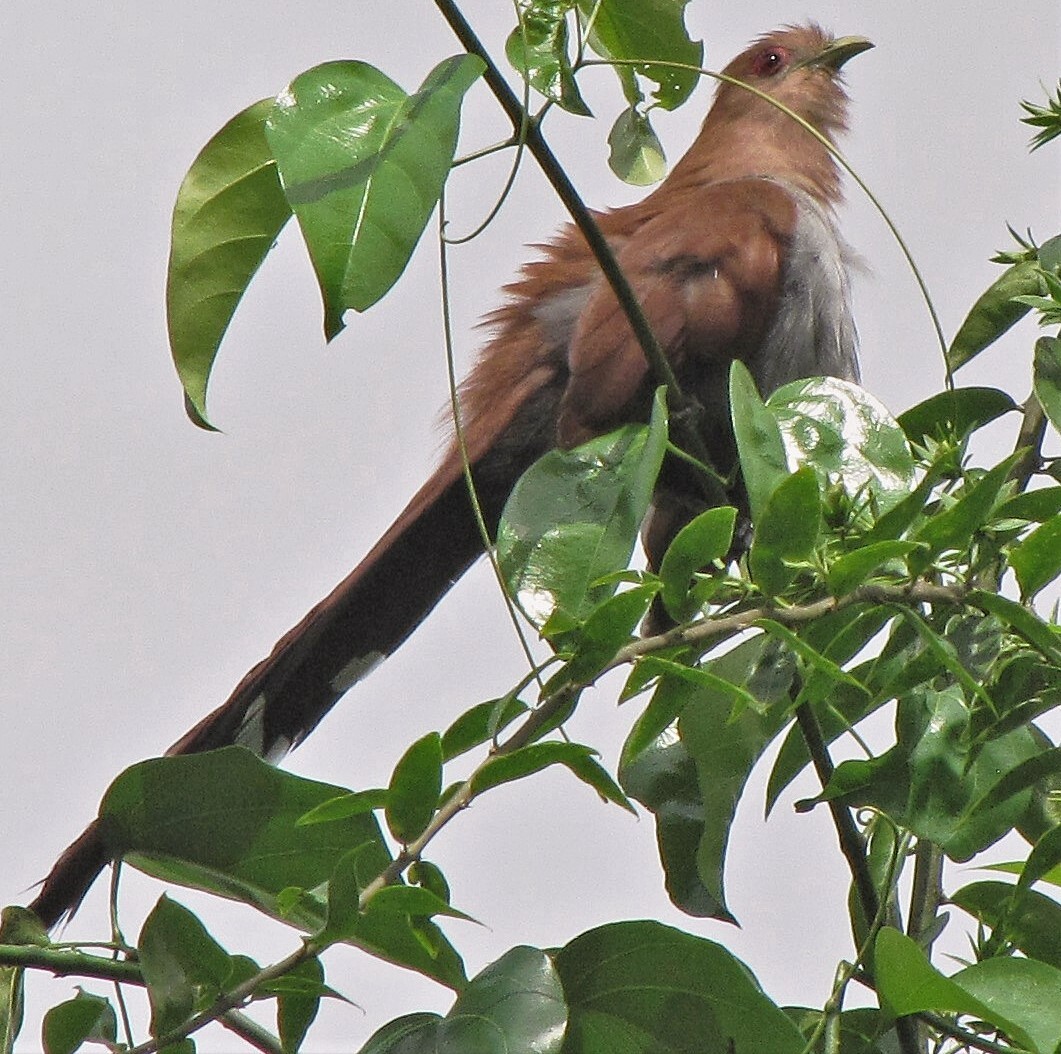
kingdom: Animalia
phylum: Chordata
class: Aves
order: Cuculiformes
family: Cuculidae
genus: Piaya
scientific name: Piaya cayana
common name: Squirrel cuckoo
